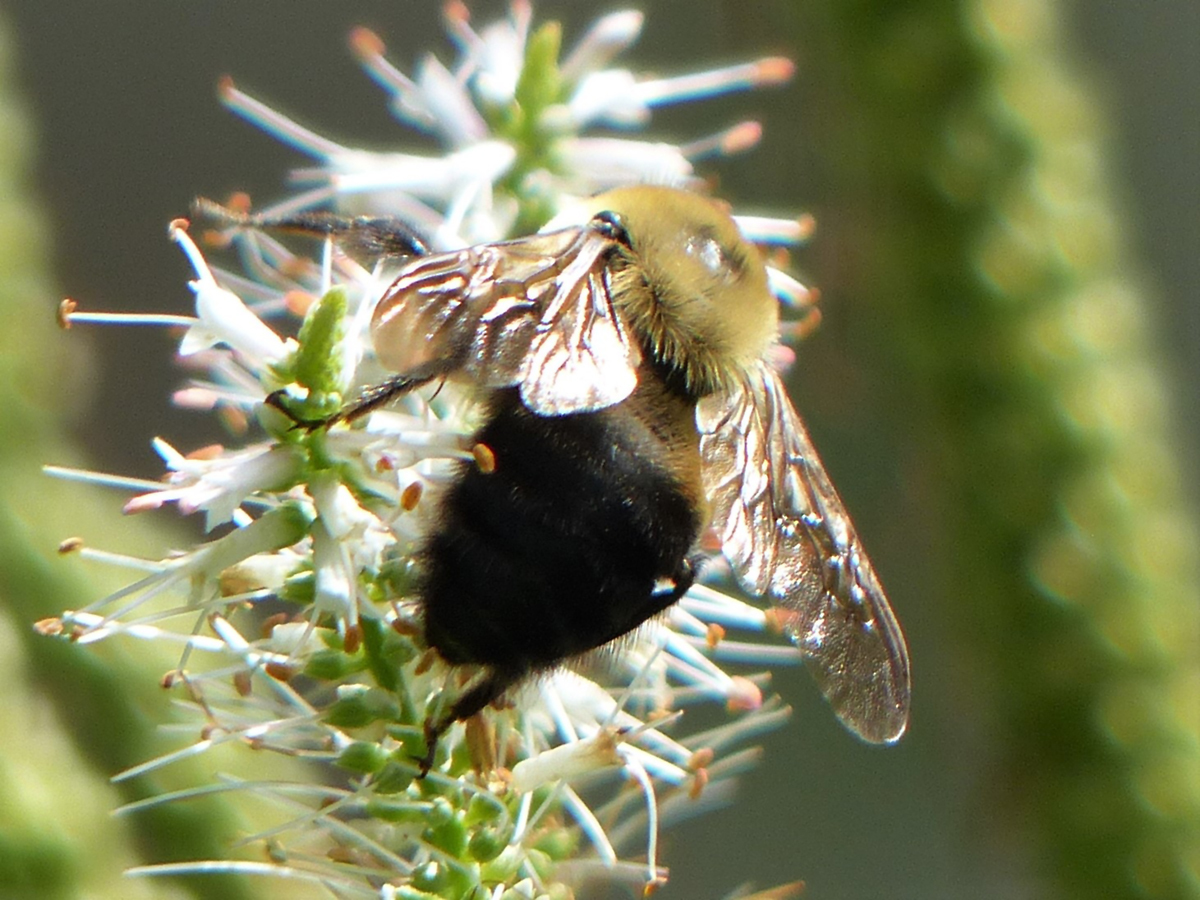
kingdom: Animalia
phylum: Arthropoda
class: Insecta
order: Hymenoptera
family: Apidae
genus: Bombus
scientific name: Bombus griseocollis
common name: Brown-belted bumble bee
